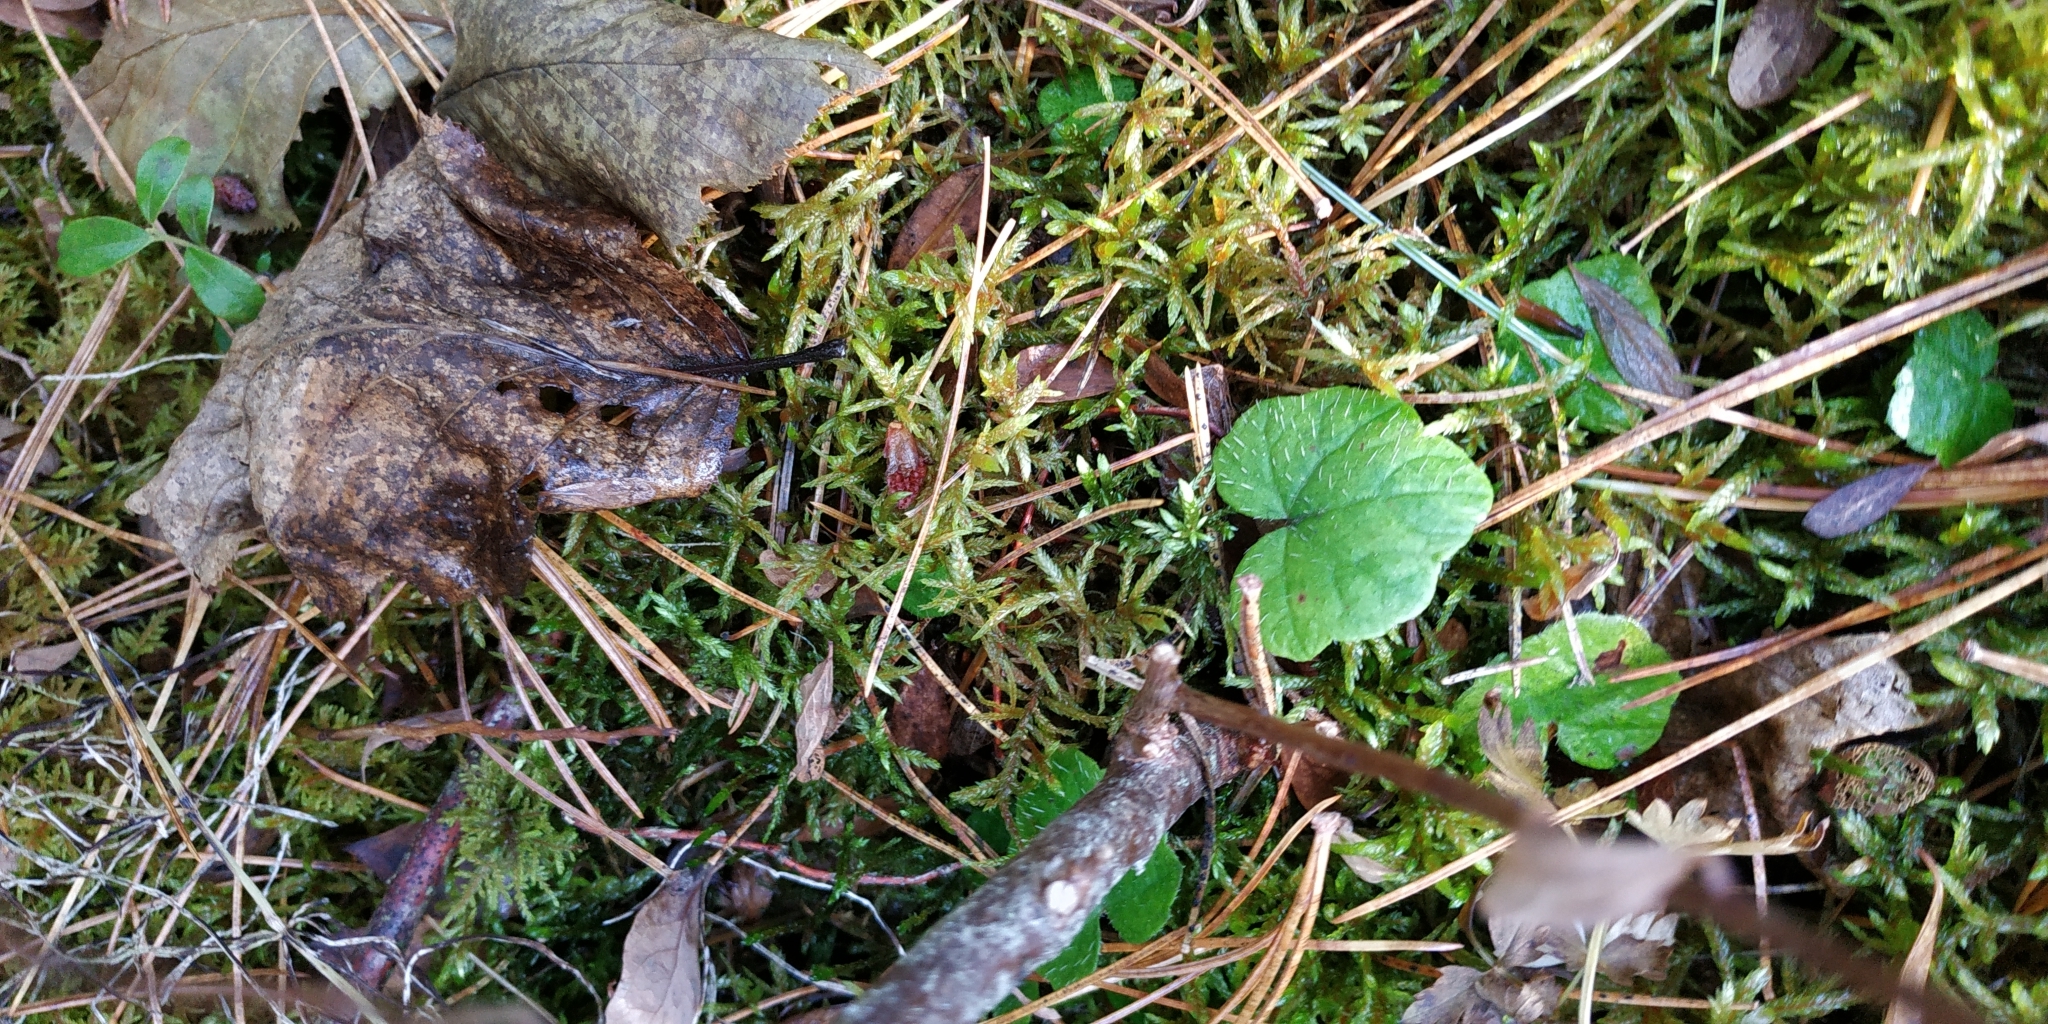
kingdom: Plantae
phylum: Tracheophyta
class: Magnoliopsida
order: Saxifragales
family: Saxifragaceae
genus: Mitella
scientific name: Mitella nuda
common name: Bare-stemmed bishop's-cap
